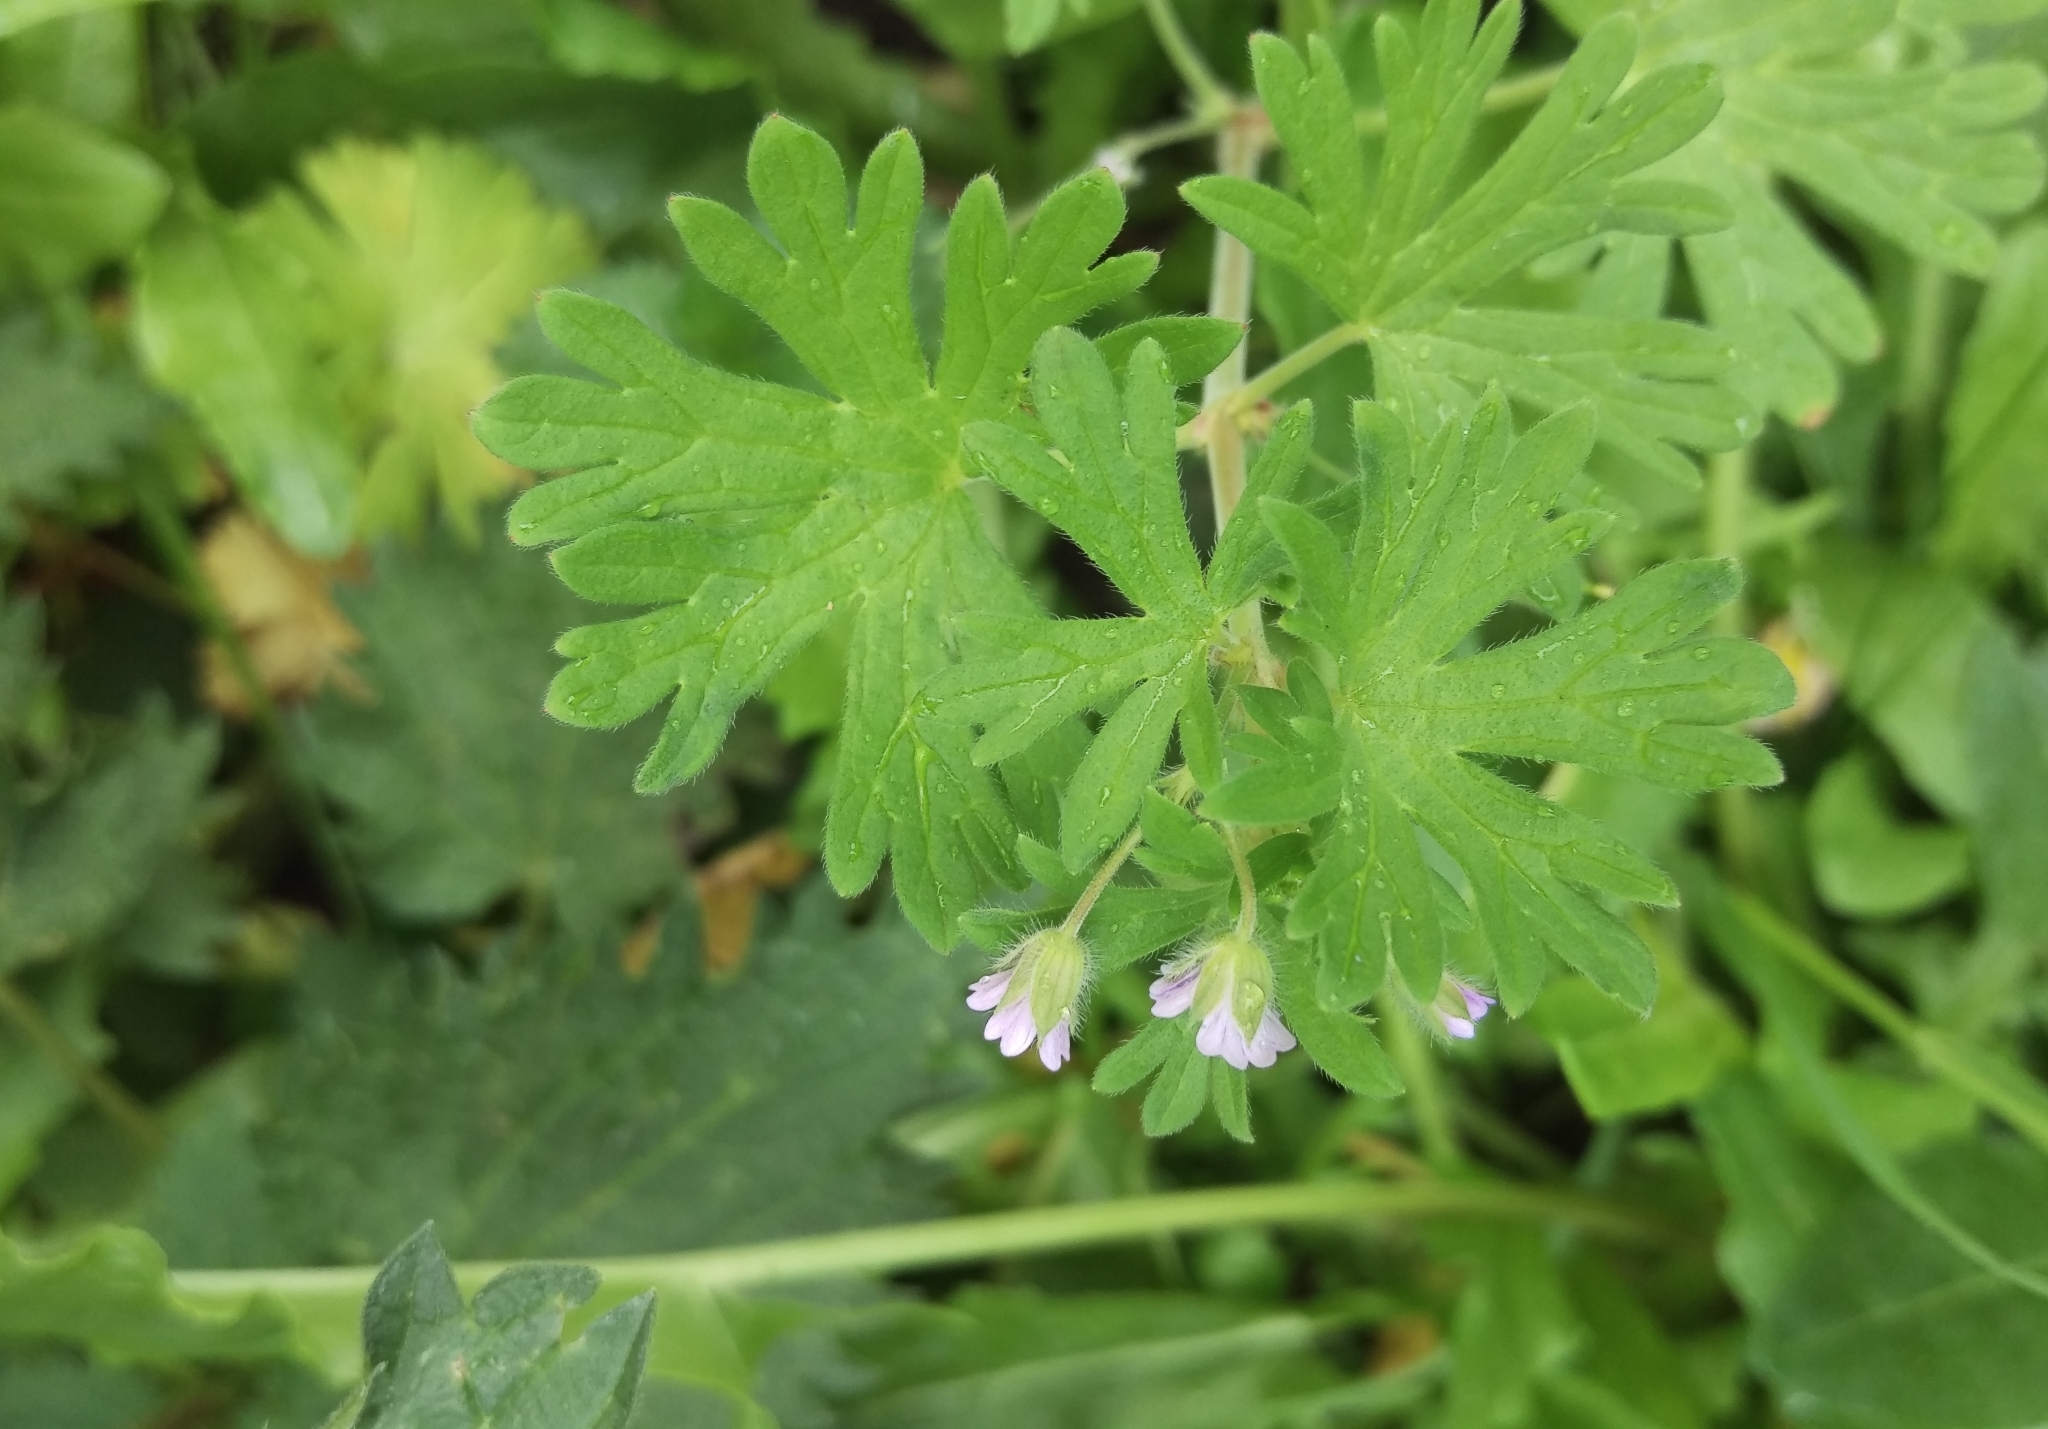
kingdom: Plantae
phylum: Tracheophyta
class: Magnoliopsida
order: Geraniales
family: Geraniaceae
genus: Geranium
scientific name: Geranium pusillum
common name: Small geranium
